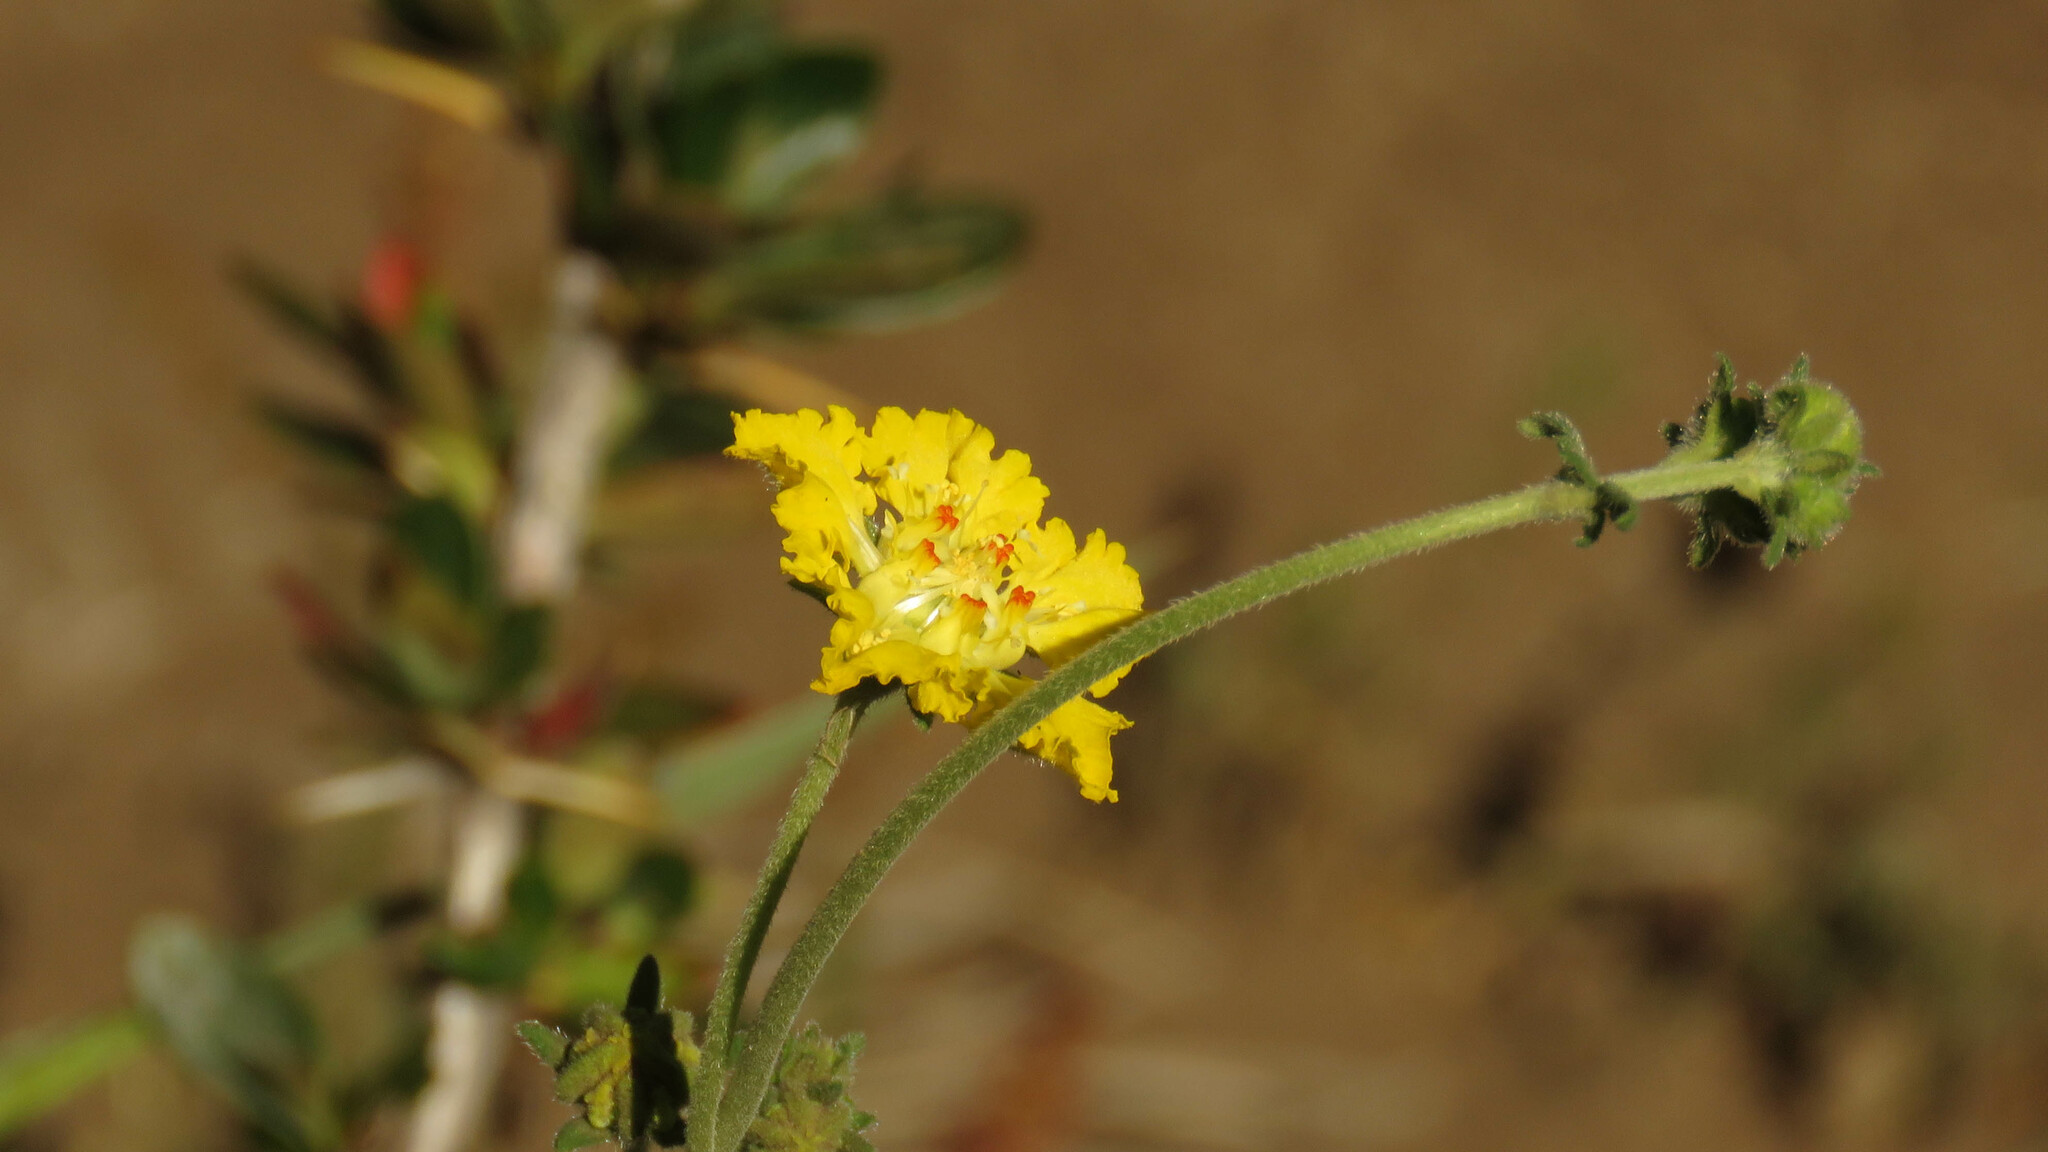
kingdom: Plantae
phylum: Tracheophyta
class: Magnoliopsida
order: Cornales
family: Loasaceae
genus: Pinnasa
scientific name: Pinnasa bergii
